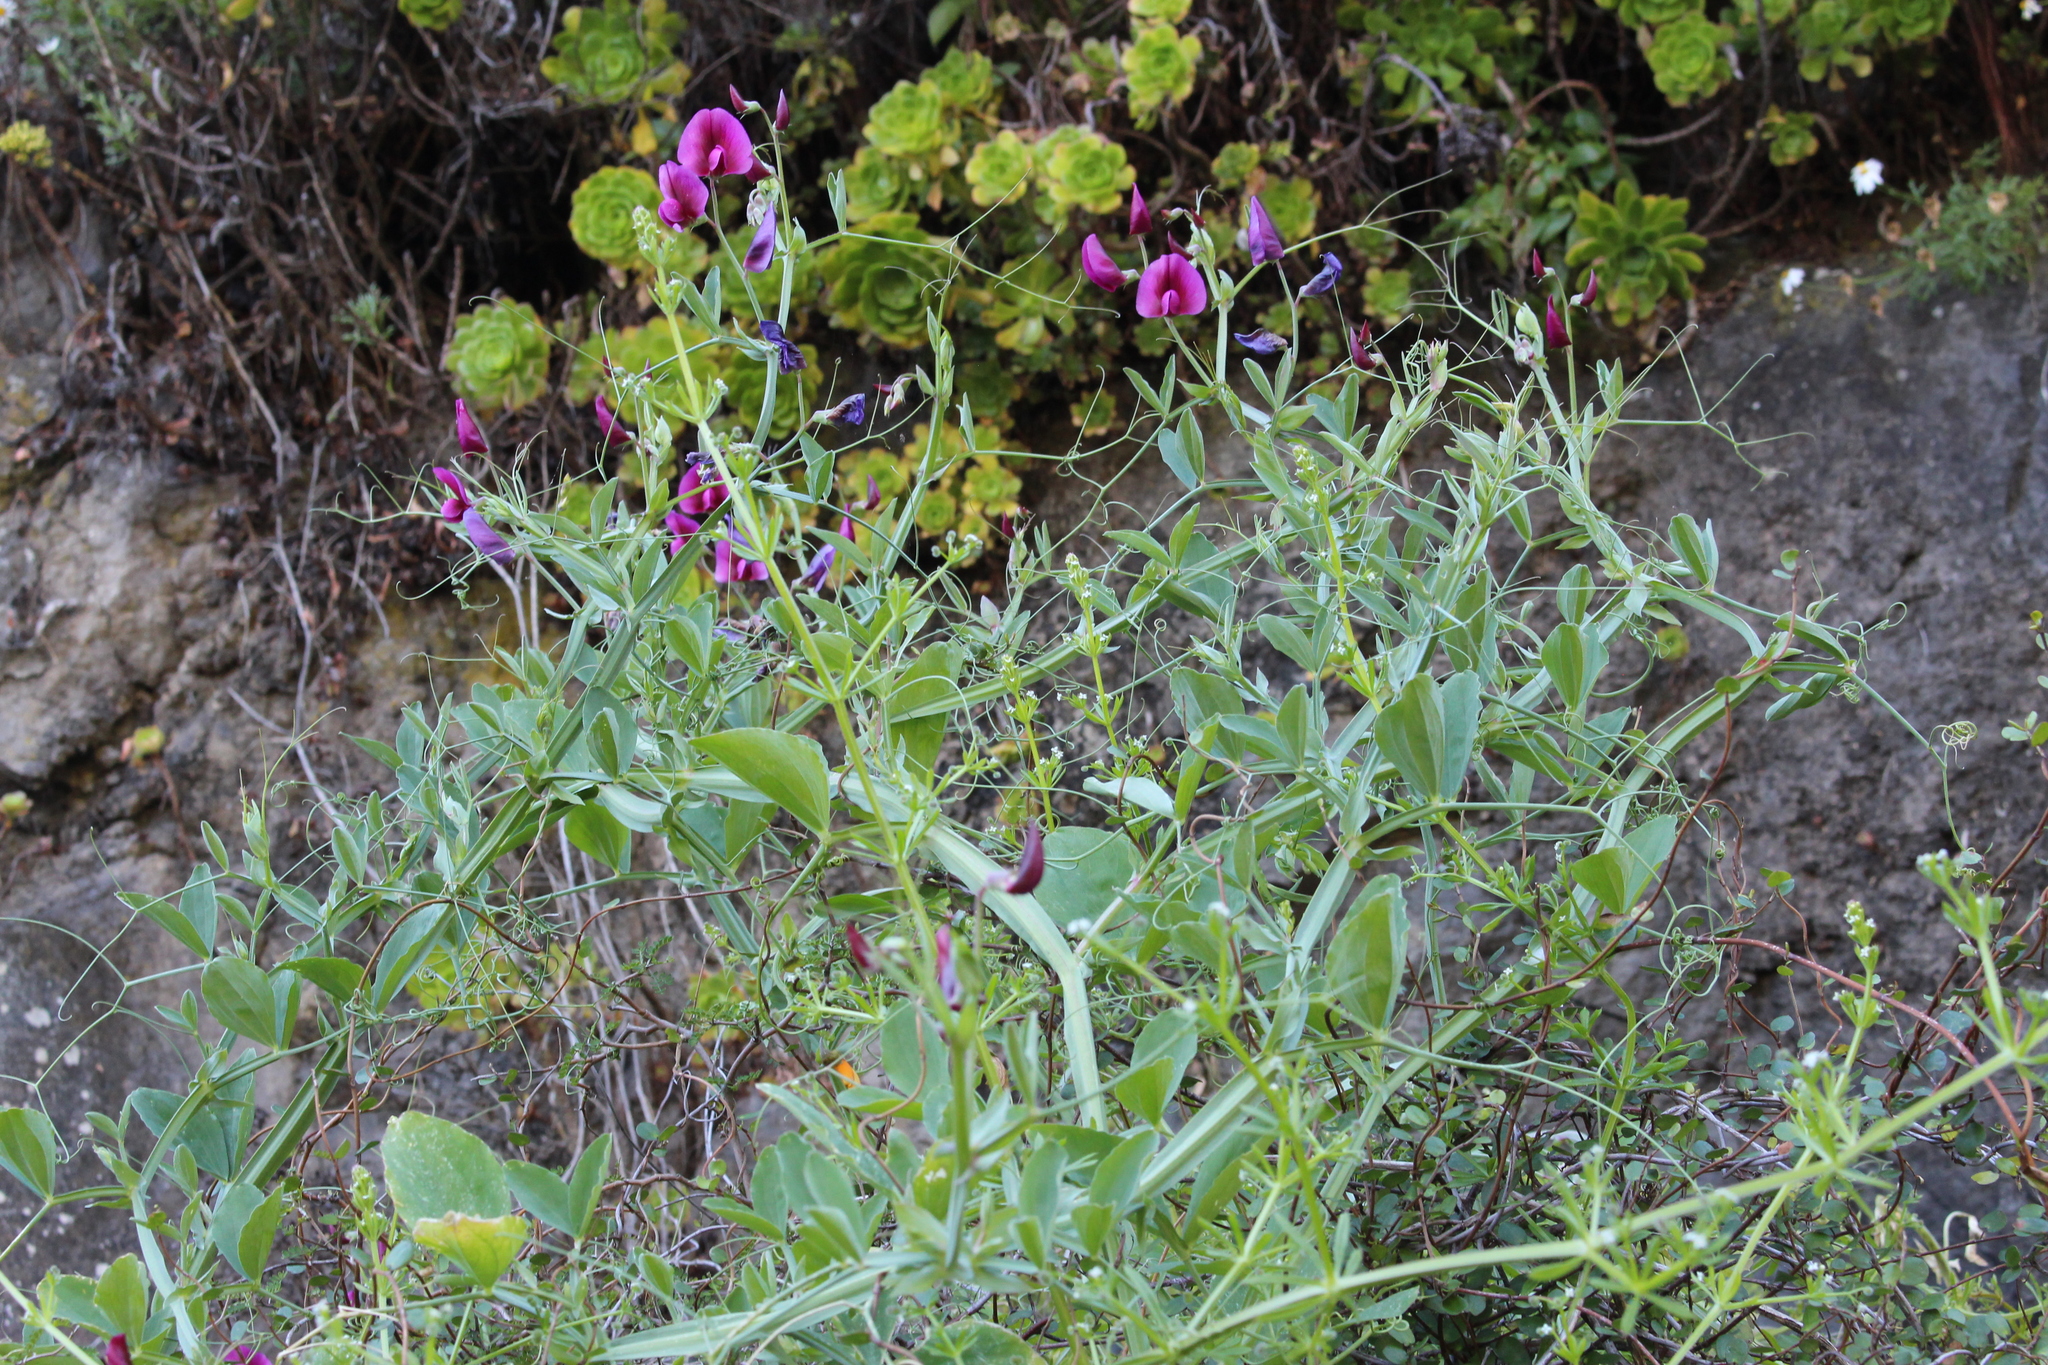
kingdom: Plantae
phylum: Tracheophyta
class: Magnoliopsida
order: Fabales
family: Fabaceae
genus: Lathyrus
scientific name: Lathyrus tingitanus
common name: Tangier pea
